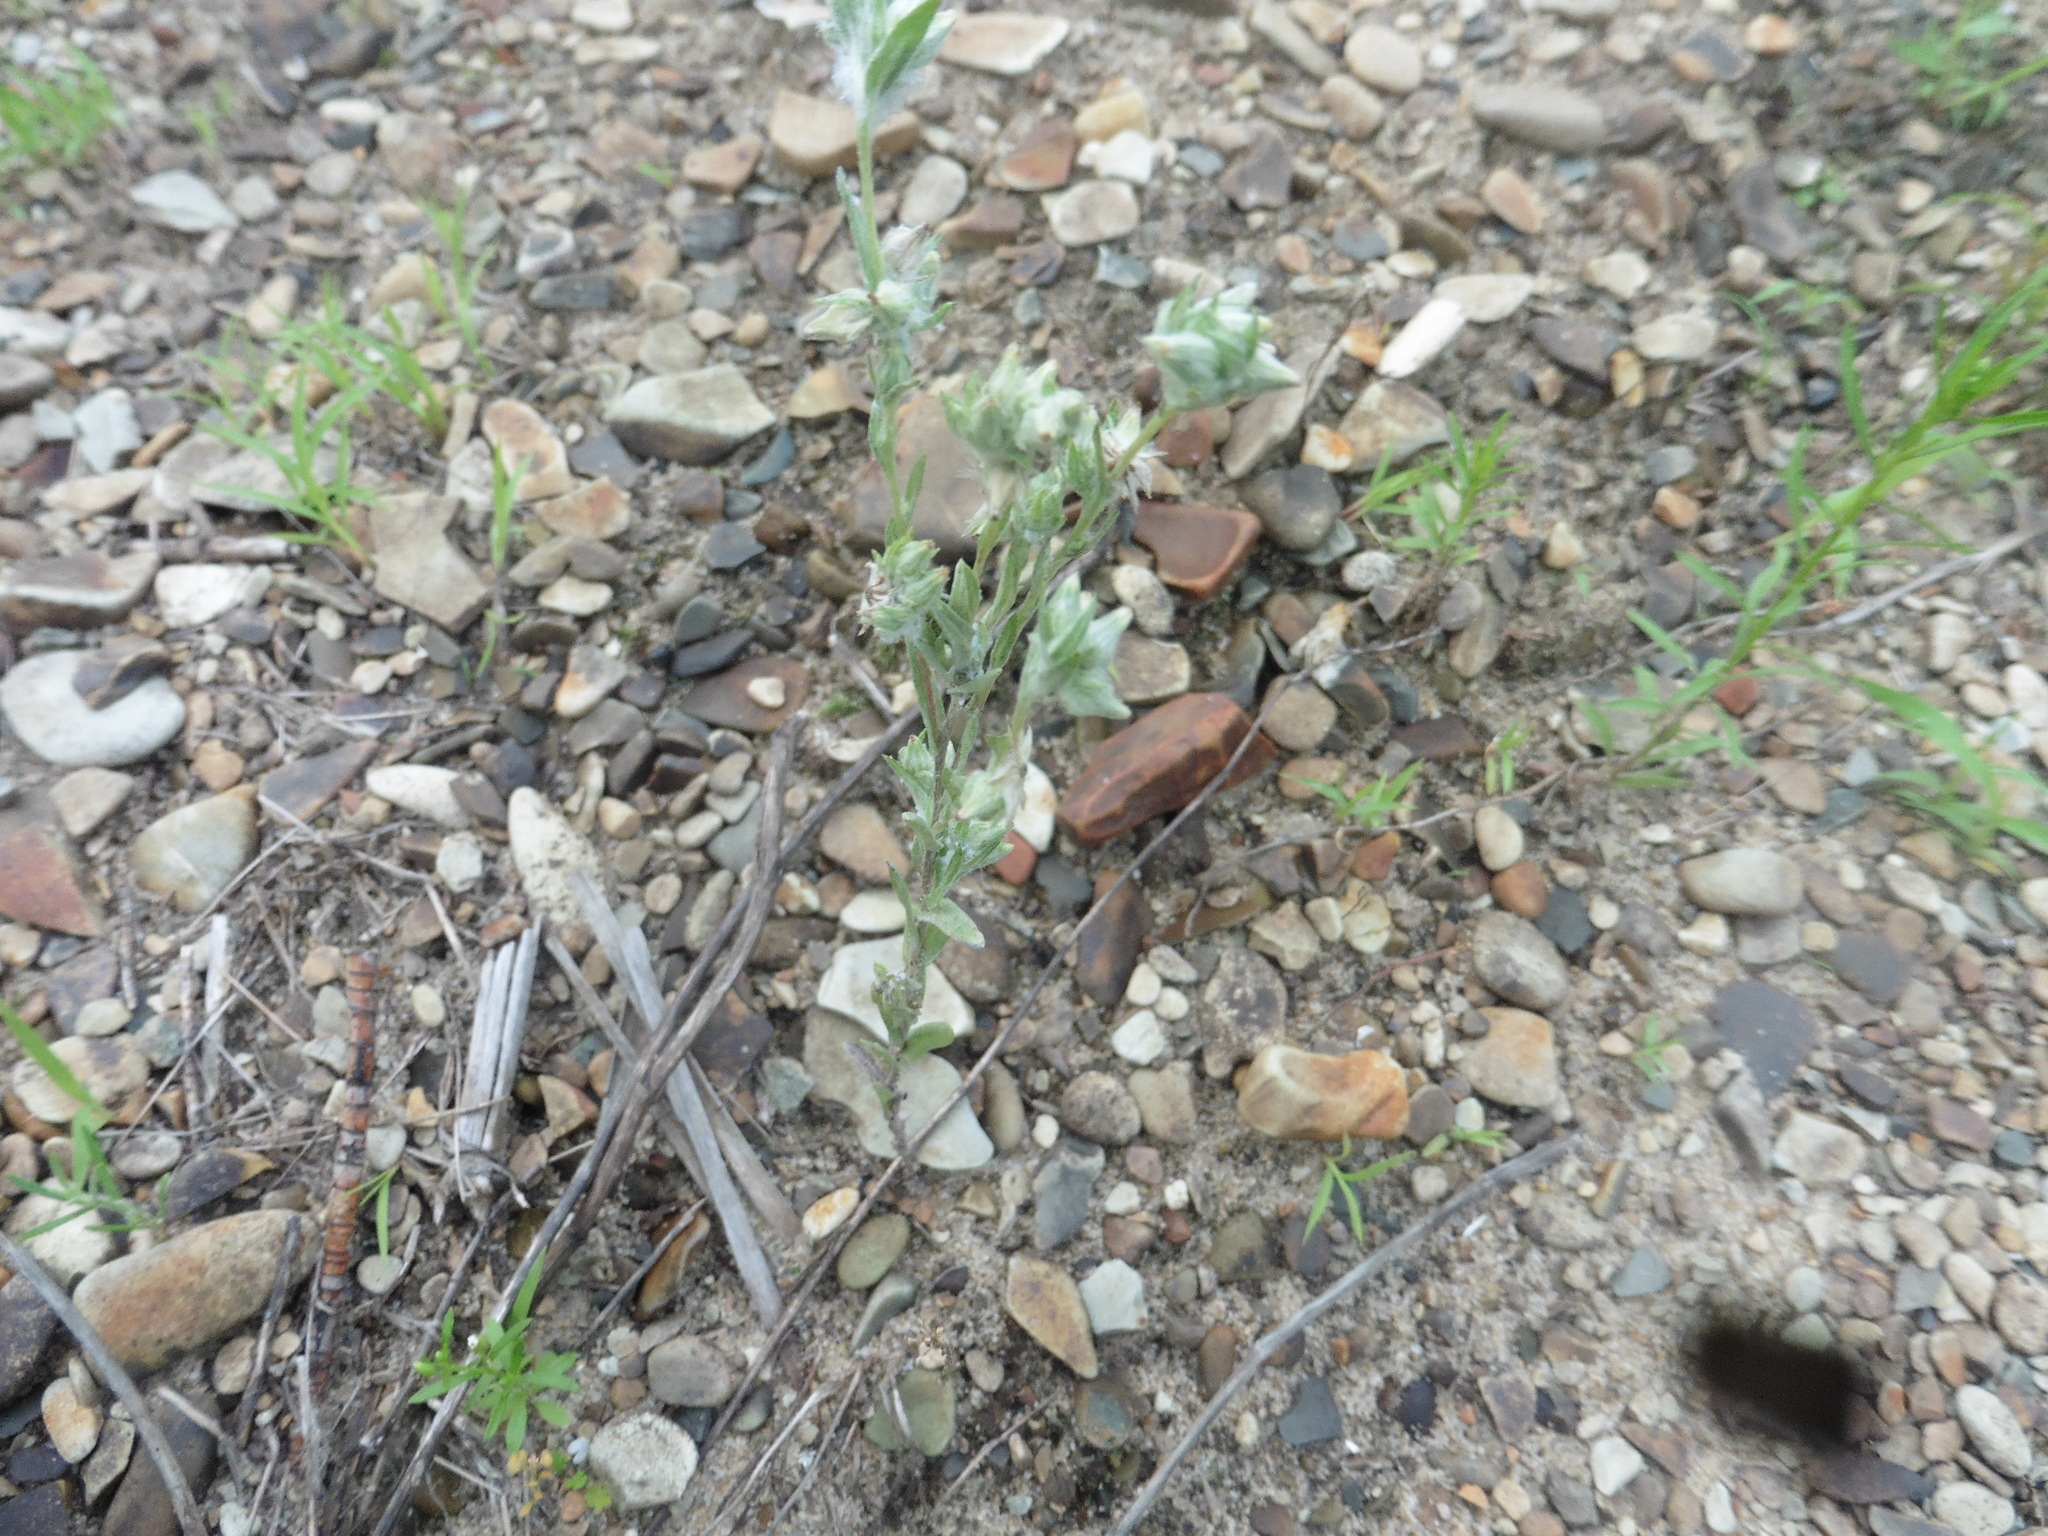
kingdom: Plantae
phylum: Tracheophyta
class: Magnoliopsida
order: Asterales
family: Asteraceae
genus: Filago
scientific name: Filago arvensis
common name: Field cudweed
